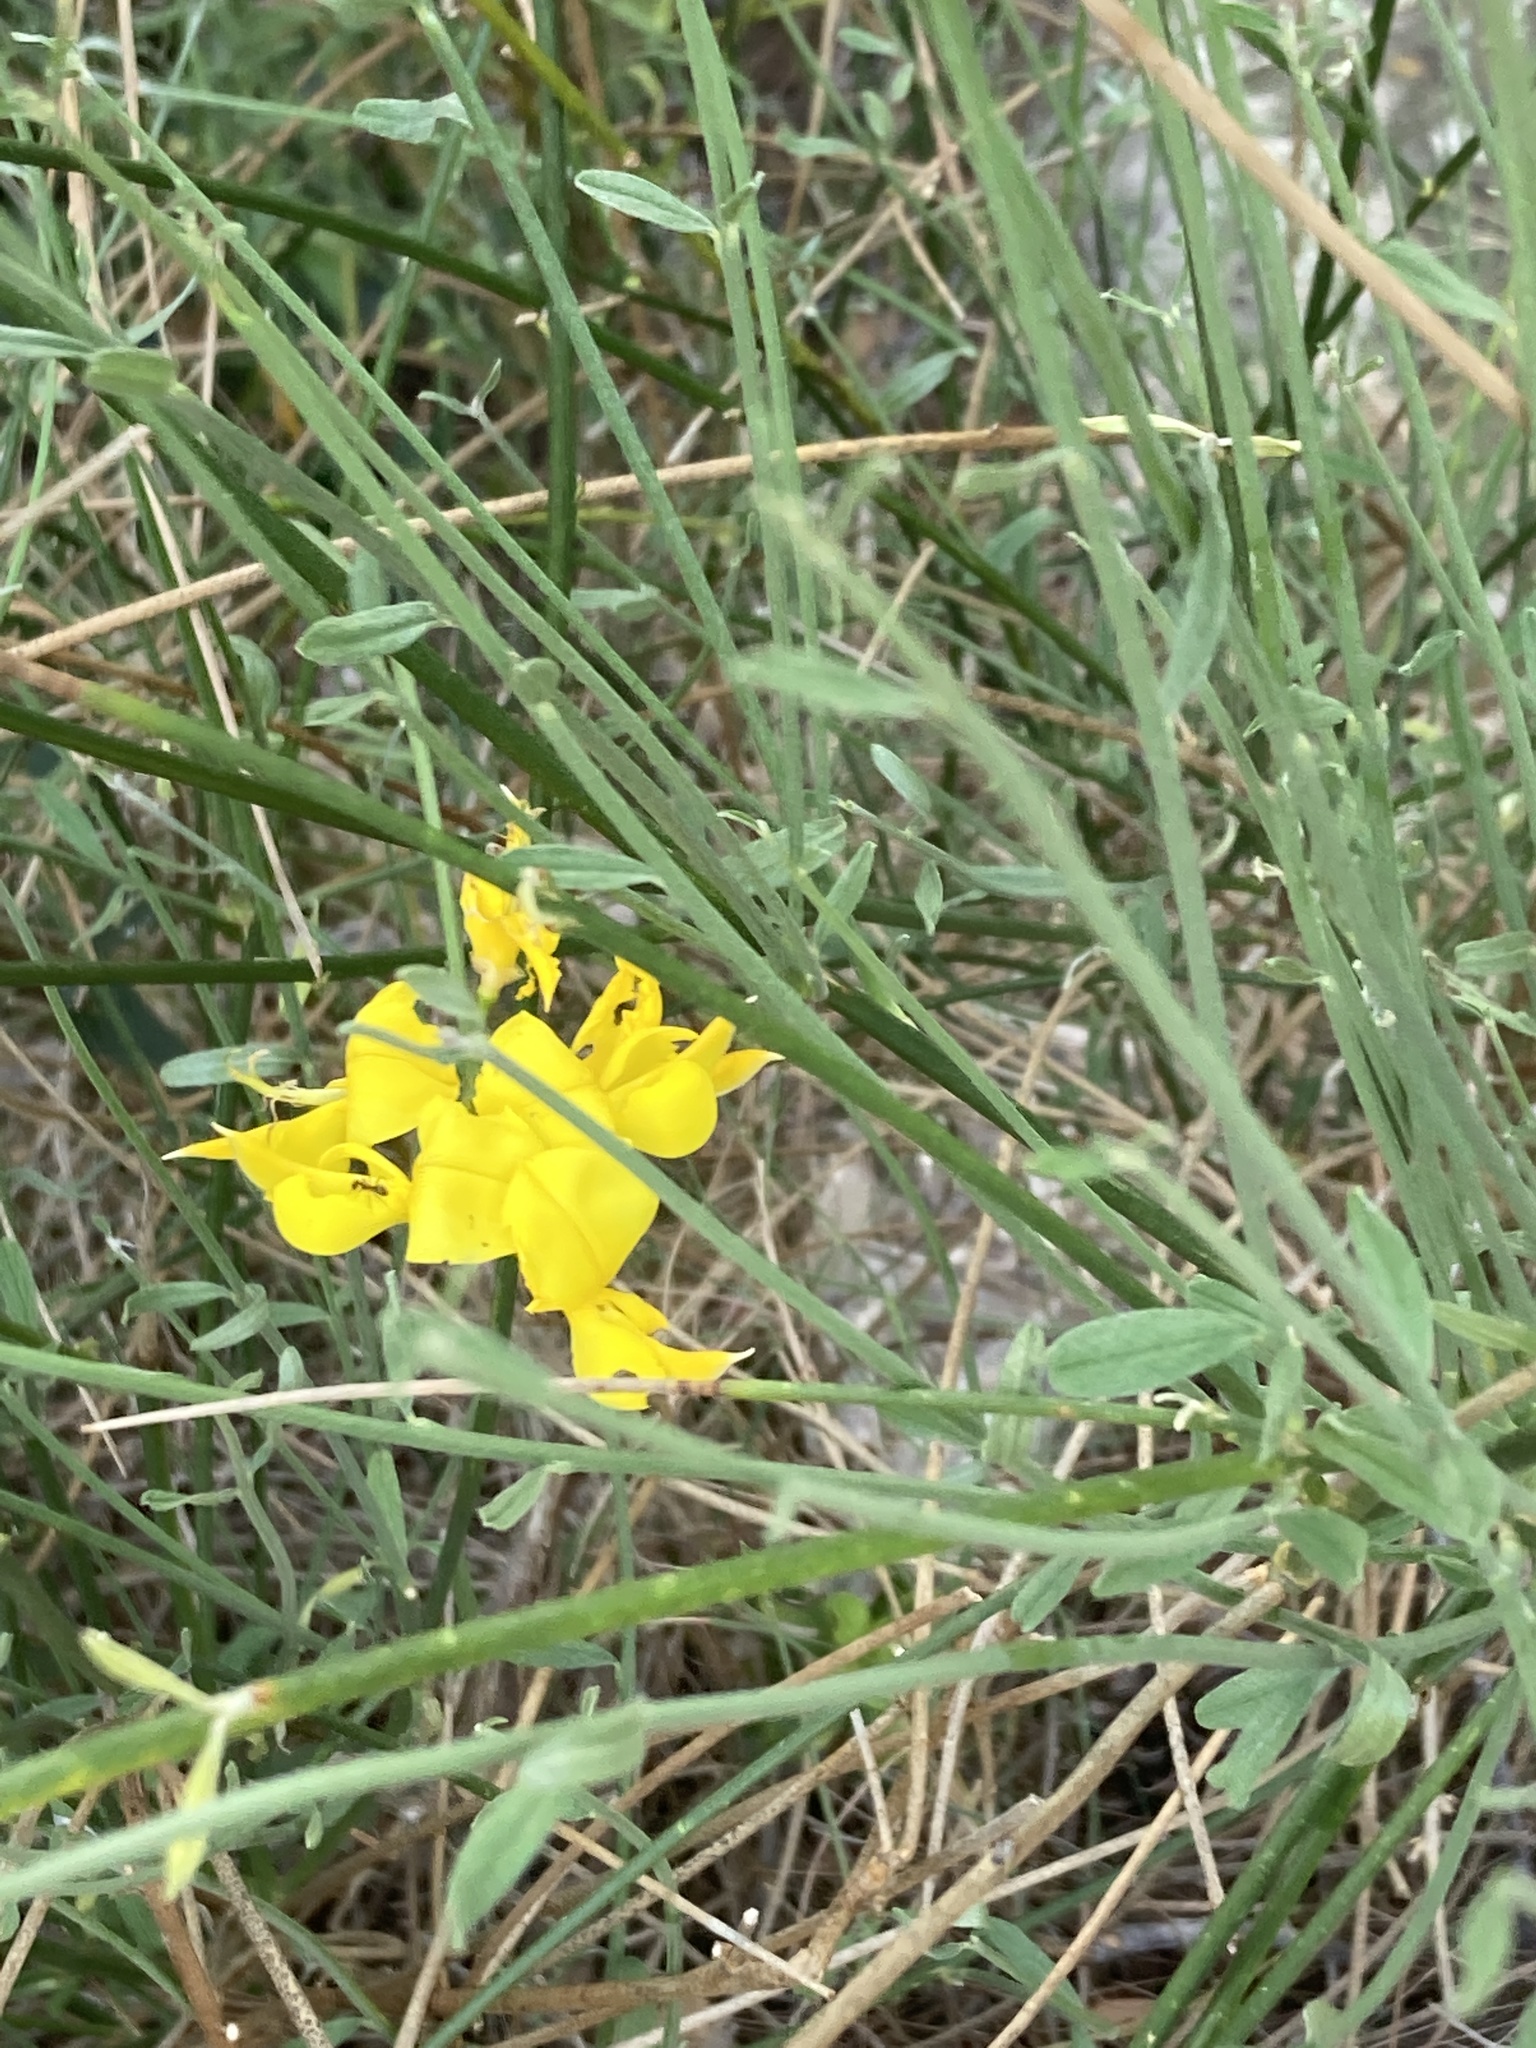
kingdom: Plantae
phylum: Tracheophyta
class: Magnoliopsida
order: Fabales
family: Fabaceae
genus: Spartium
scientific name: Spartium junceum
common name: Spanish broom
